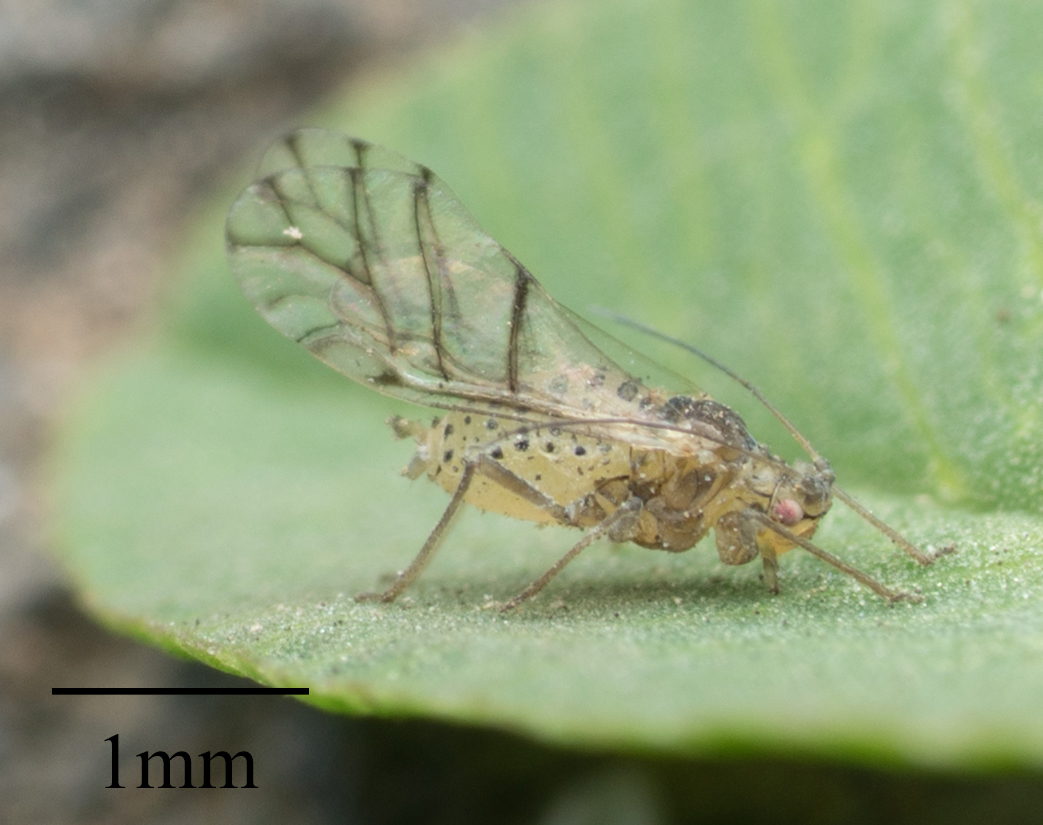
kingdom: Animalia
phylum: Arthropoda
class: Insecta
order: Hemiptera
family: Aphididae
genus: Therioaphis
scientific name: Therioaphis trifolii
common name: Spotted alfalfa aphid
